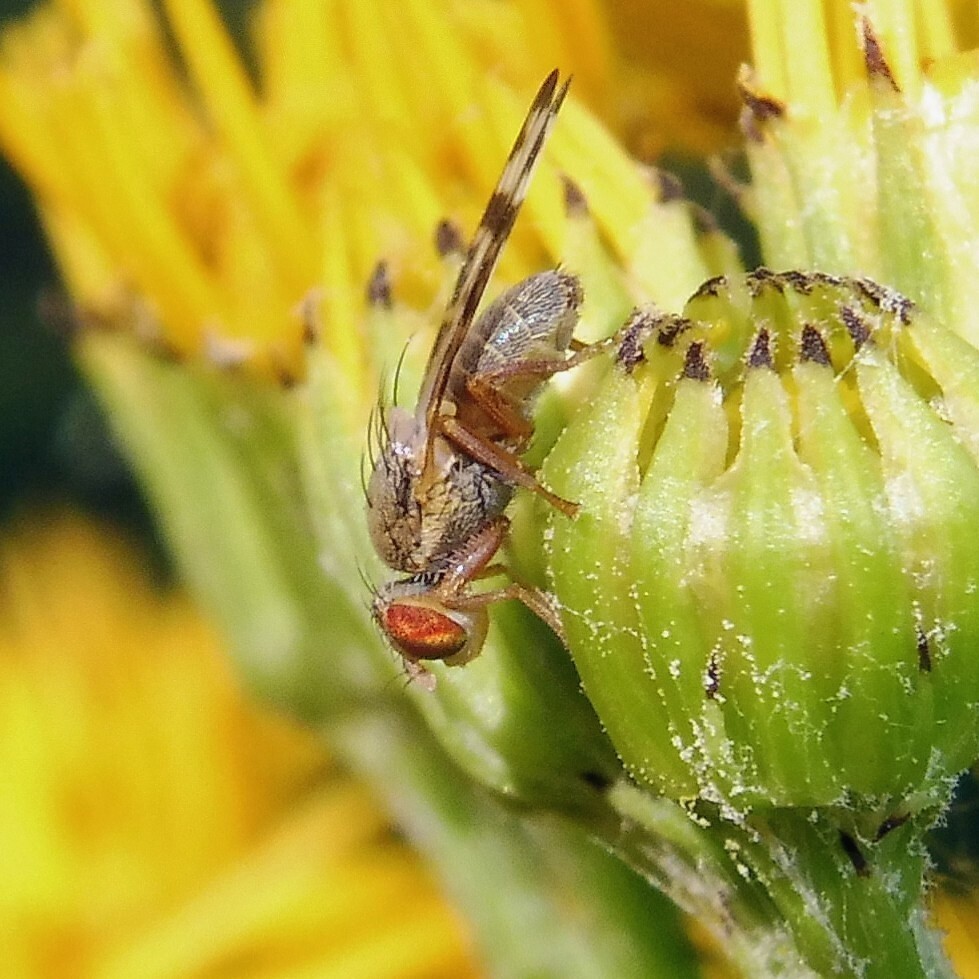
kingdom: Animalia
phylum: Arthropoda
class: Insecta
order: Diptera
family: Tephritidae
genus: Sphenella
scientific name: Sphenella marginata
